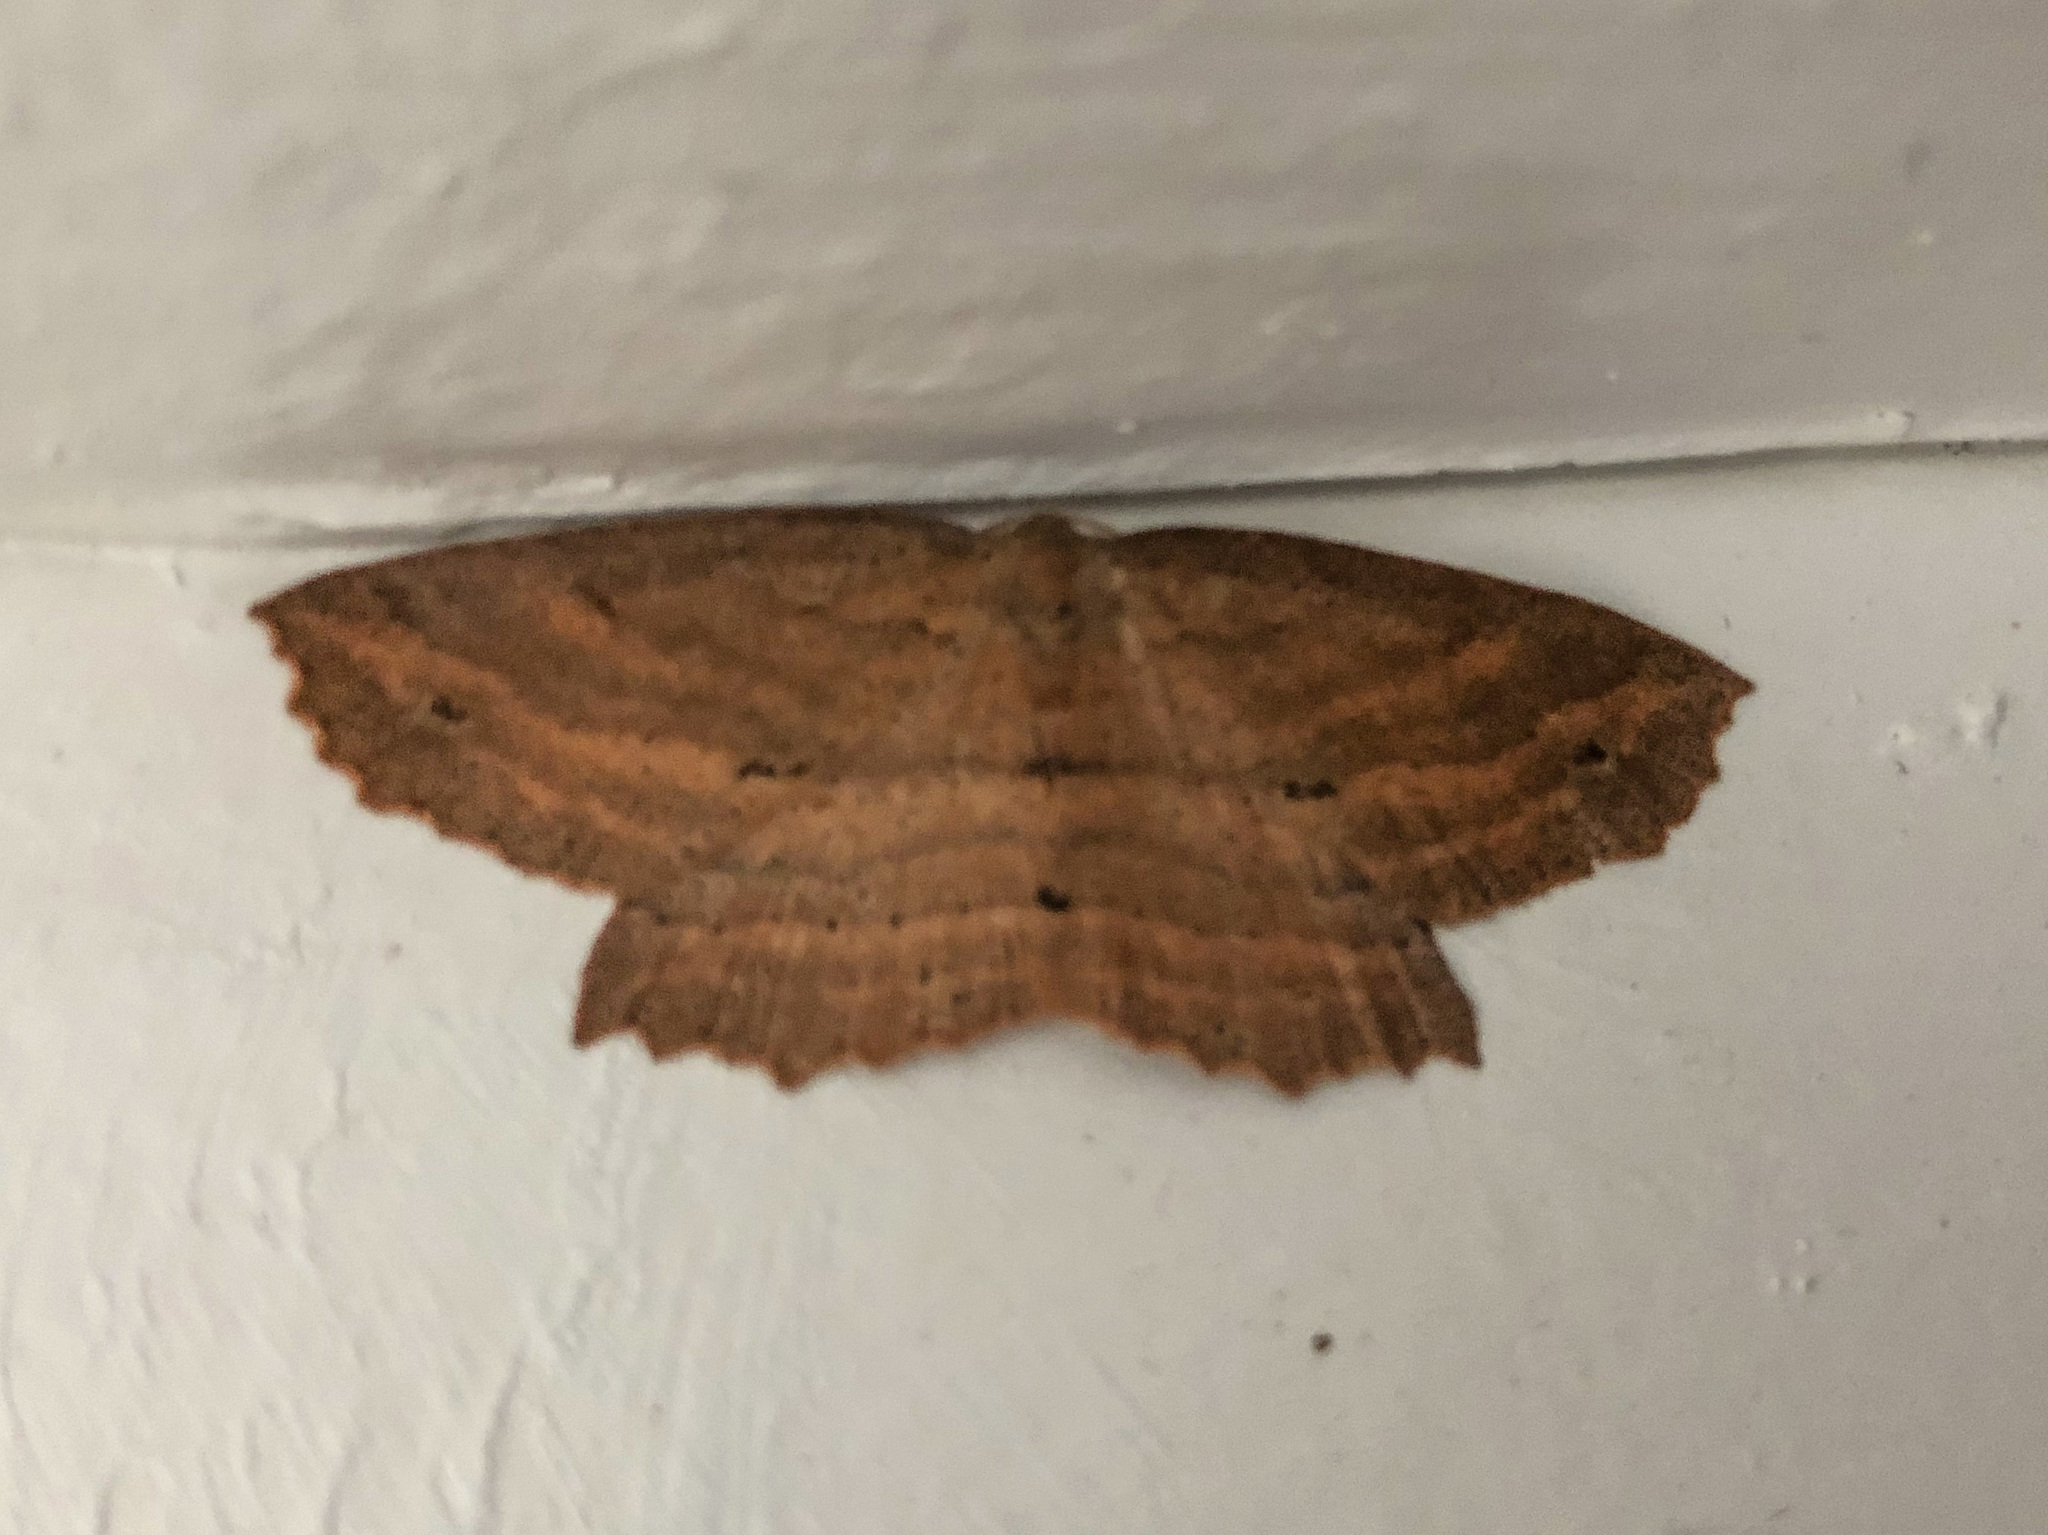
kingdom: Animalia
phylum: Arthropoda
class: Insecta
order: Lepidoptera
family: Geometridae
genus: Xyridacma
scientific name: Xyridacma veronicae
